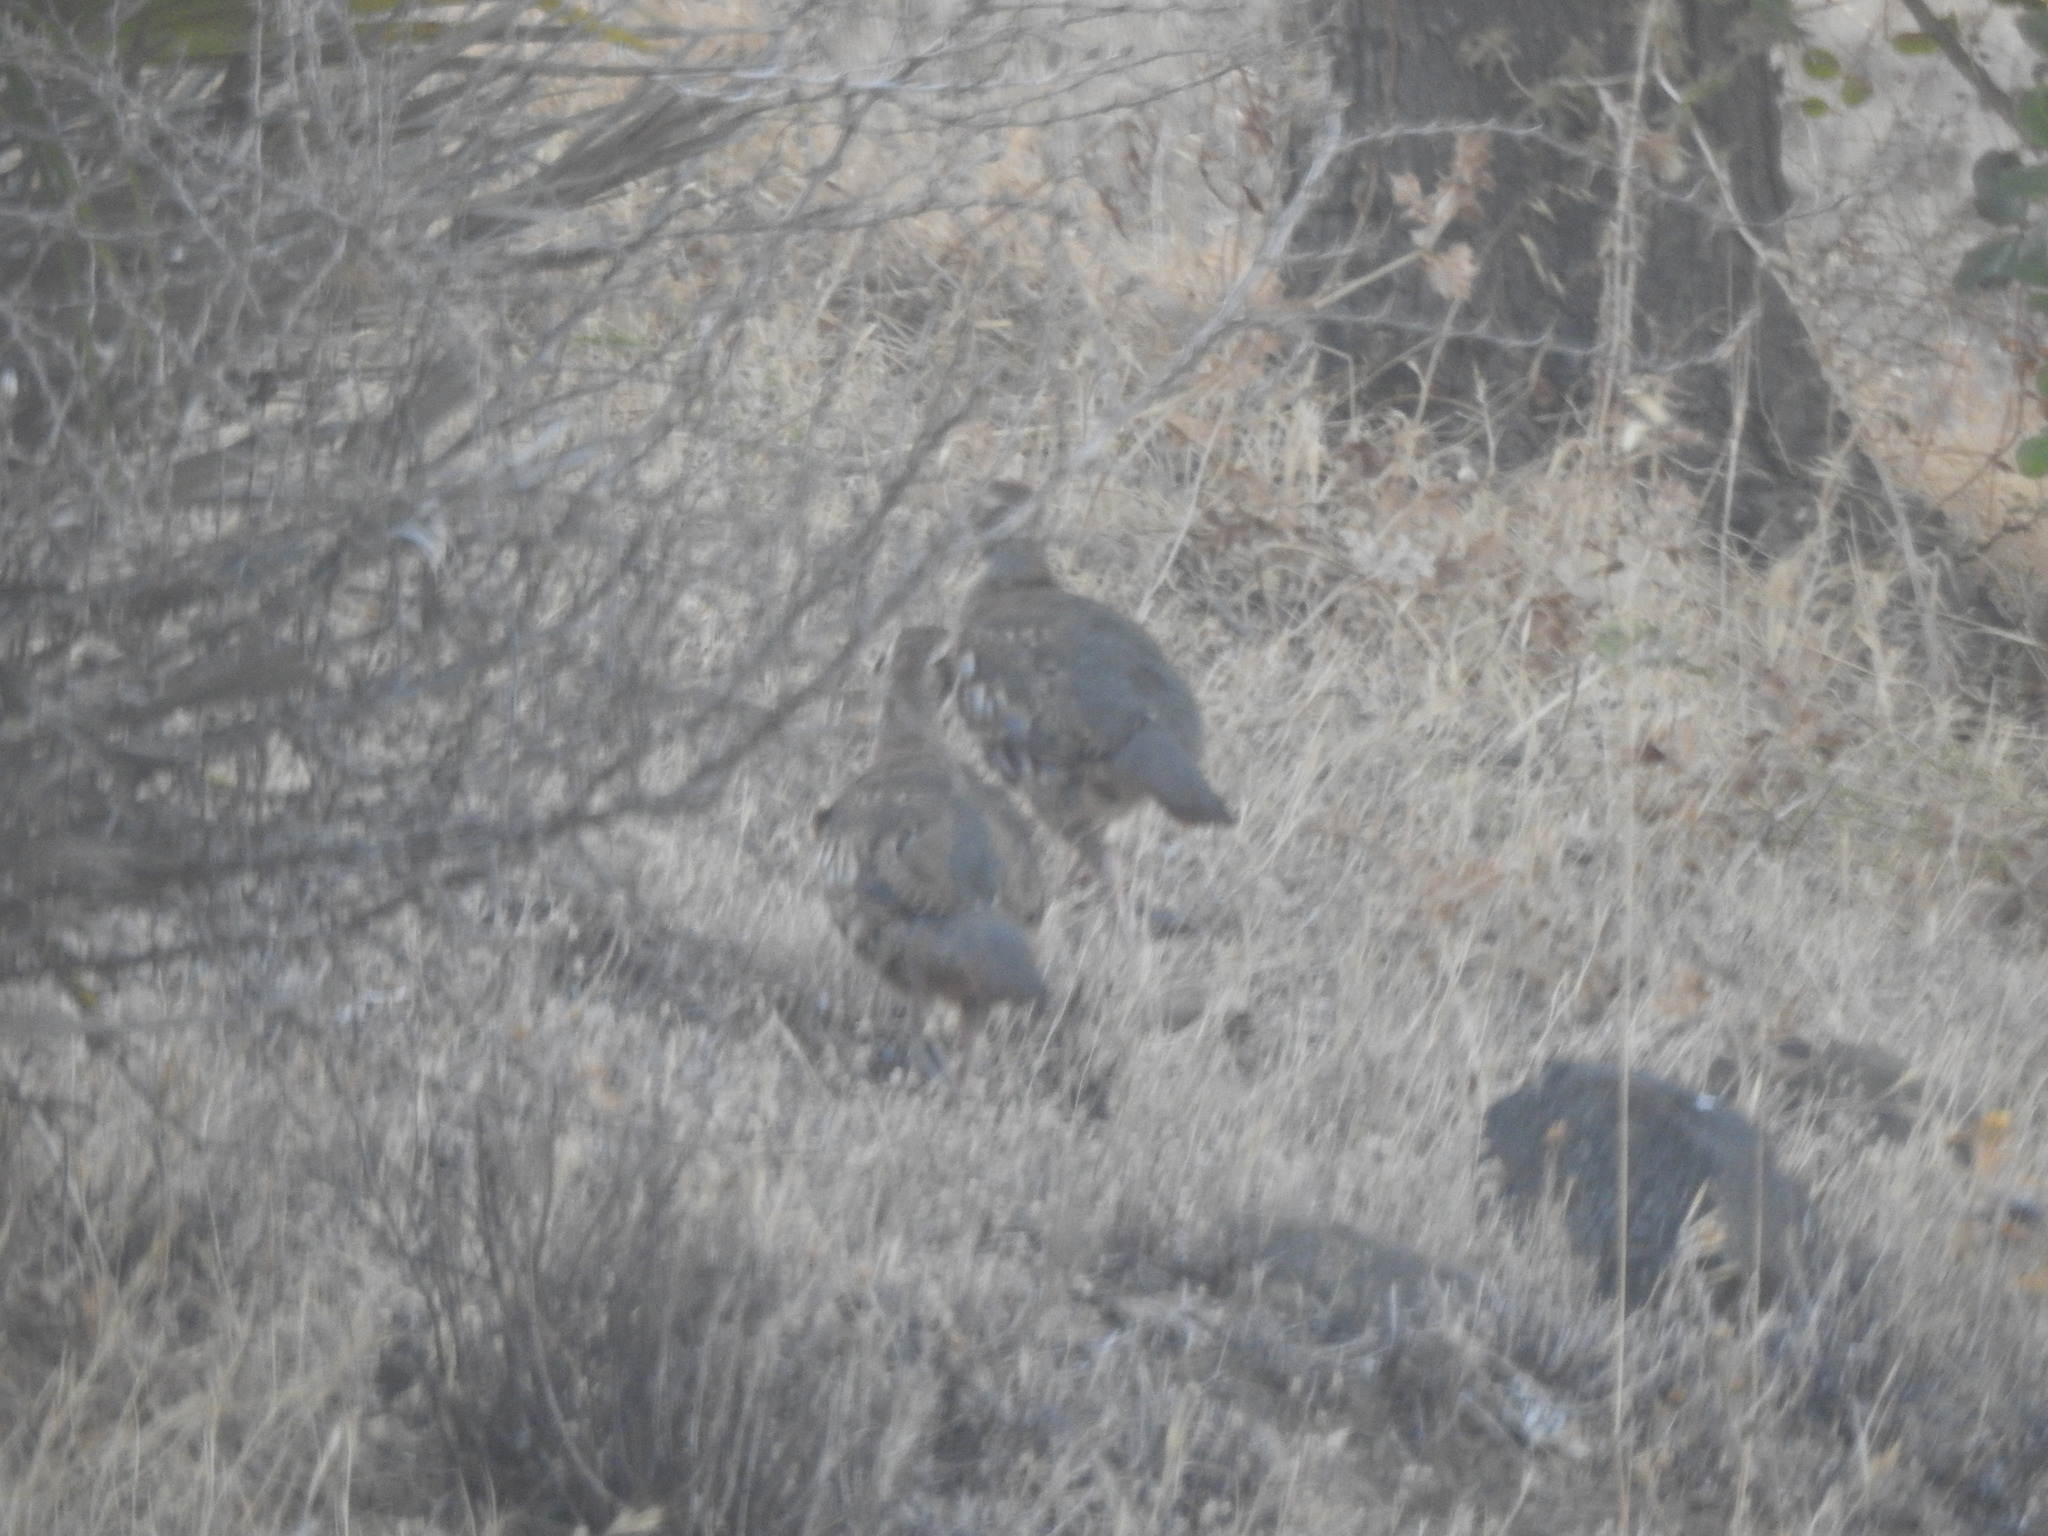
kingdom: Animalia
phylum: Chordata
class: Aves
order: Galliformes
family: Phasianidae
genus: Alectoris
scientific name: Alectoris rufa
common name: Red-legged partridge
